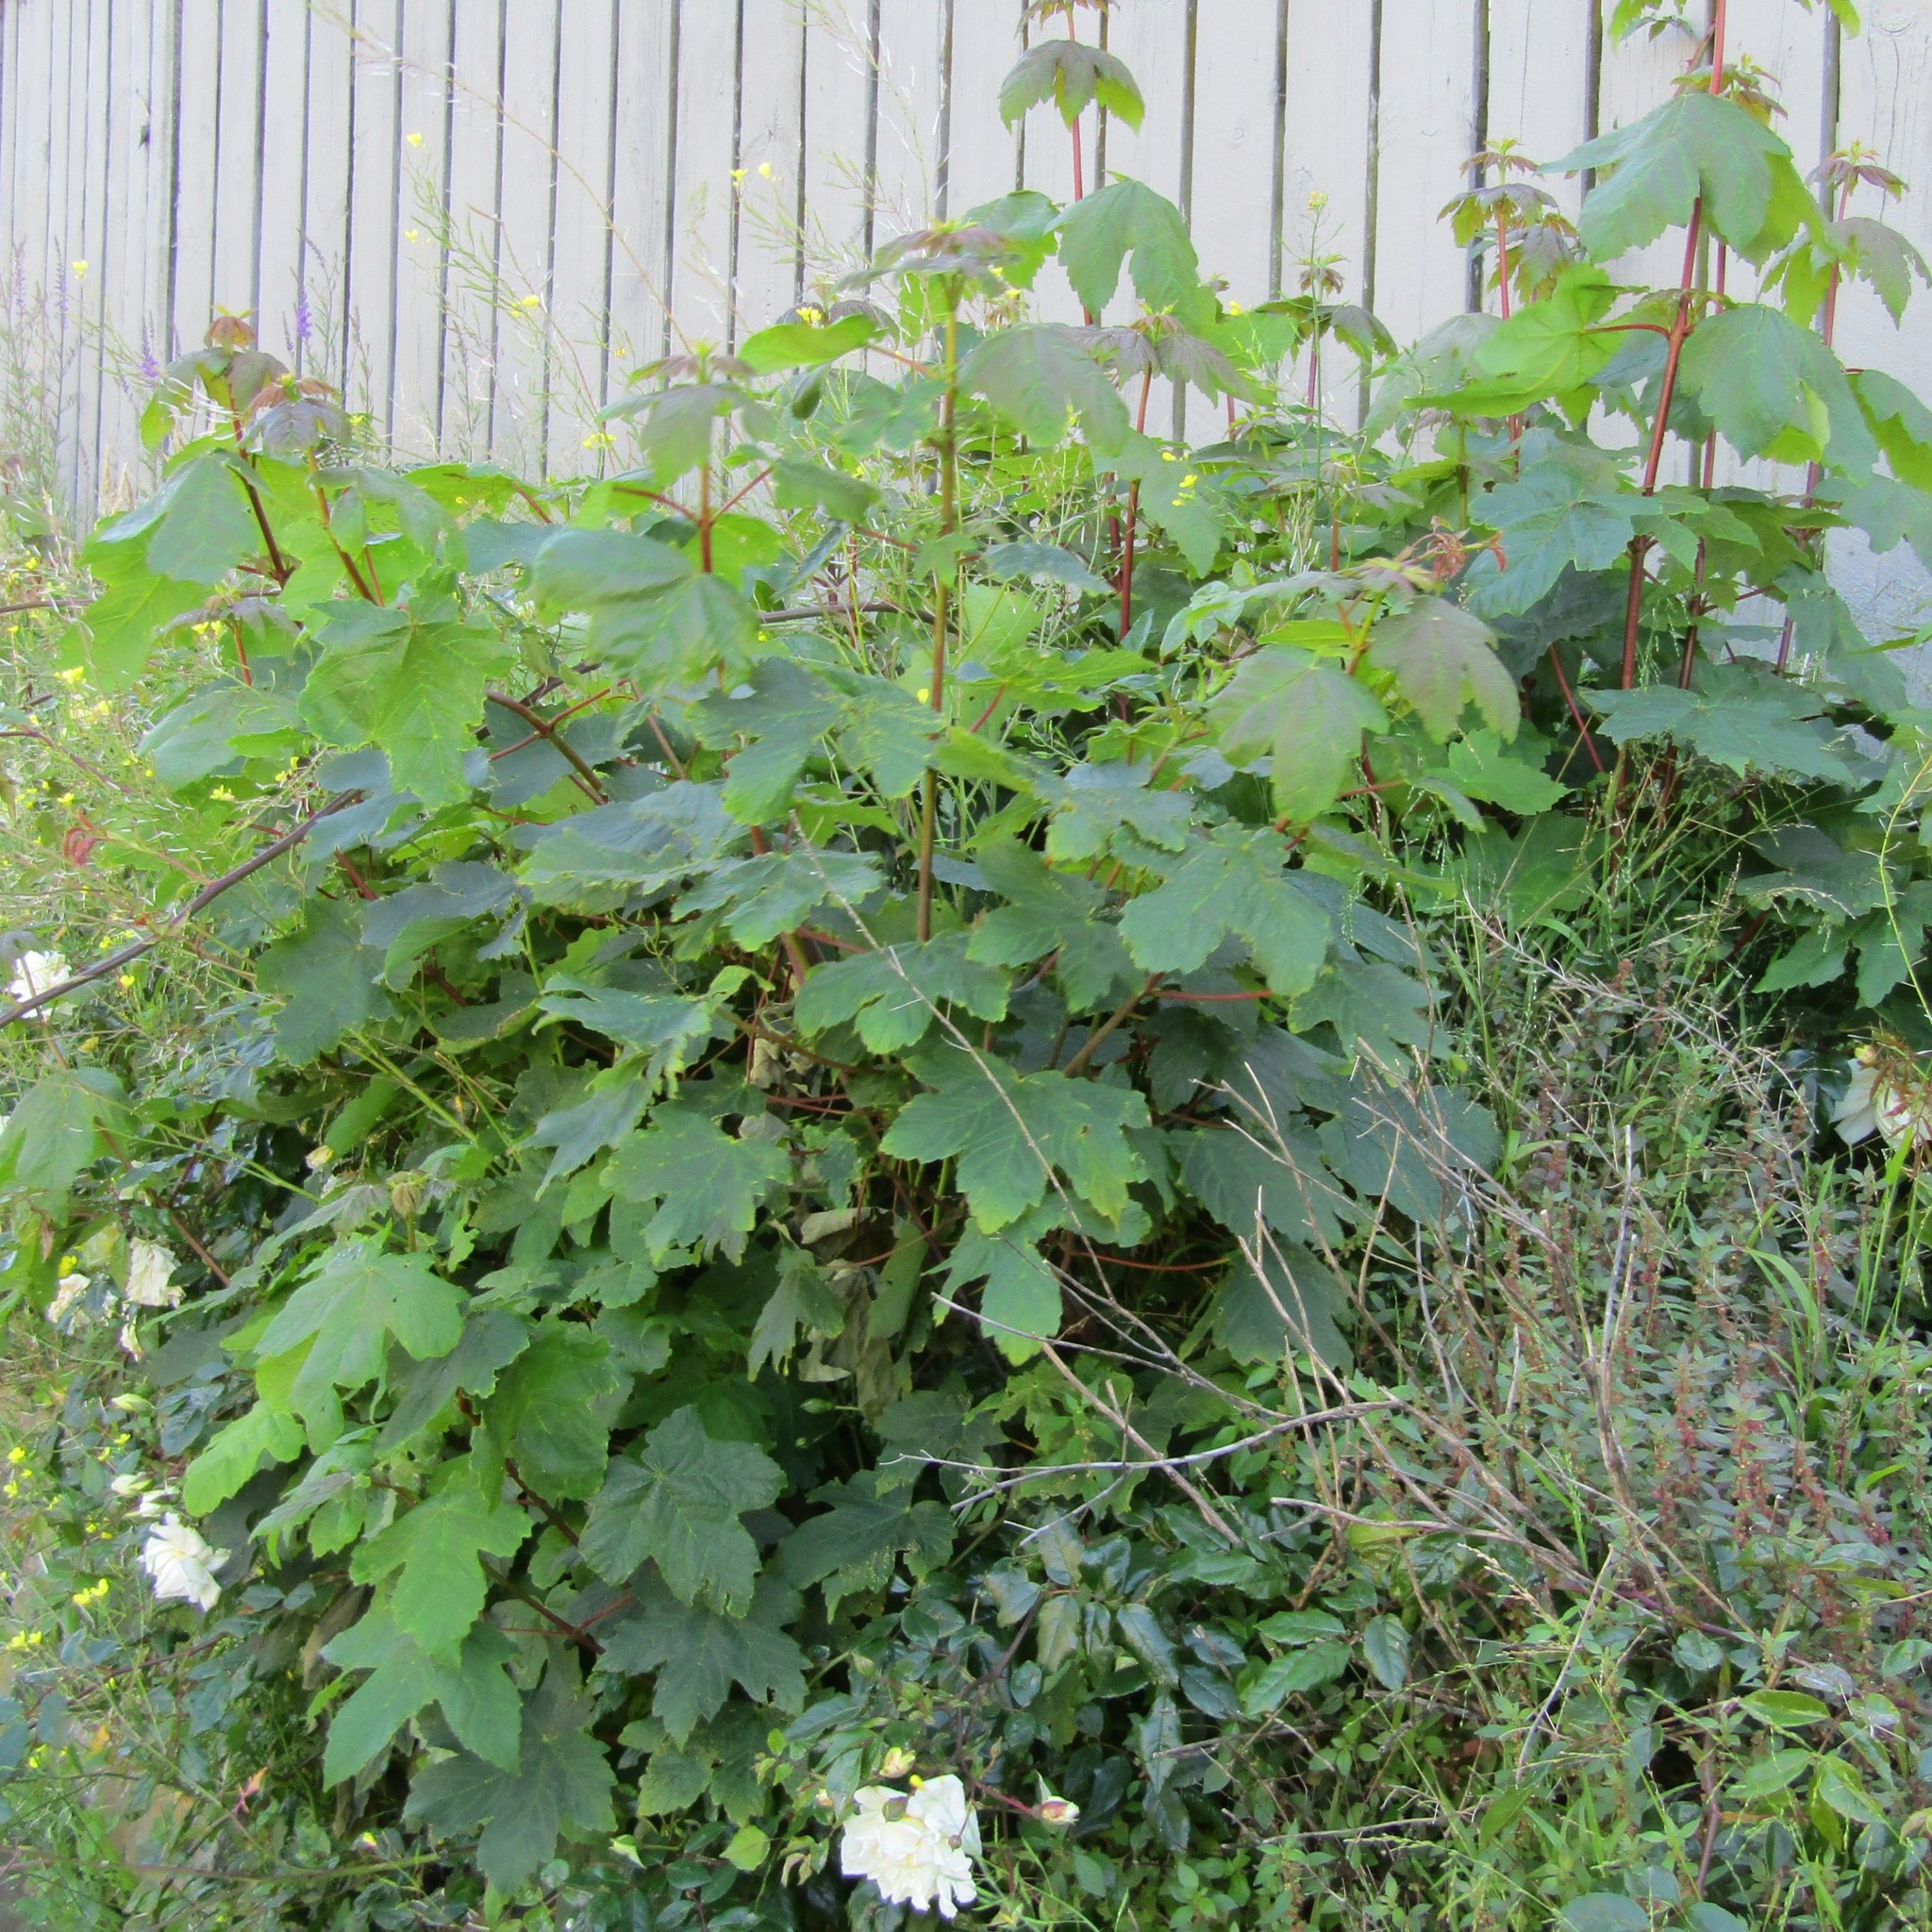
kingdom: Plantae
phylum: Tracheophyta
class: Magnoliopsida
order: Sapindales
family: Sapindaceae
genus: Acer
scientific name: Acer pseudoplatanus
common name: Sycamore
